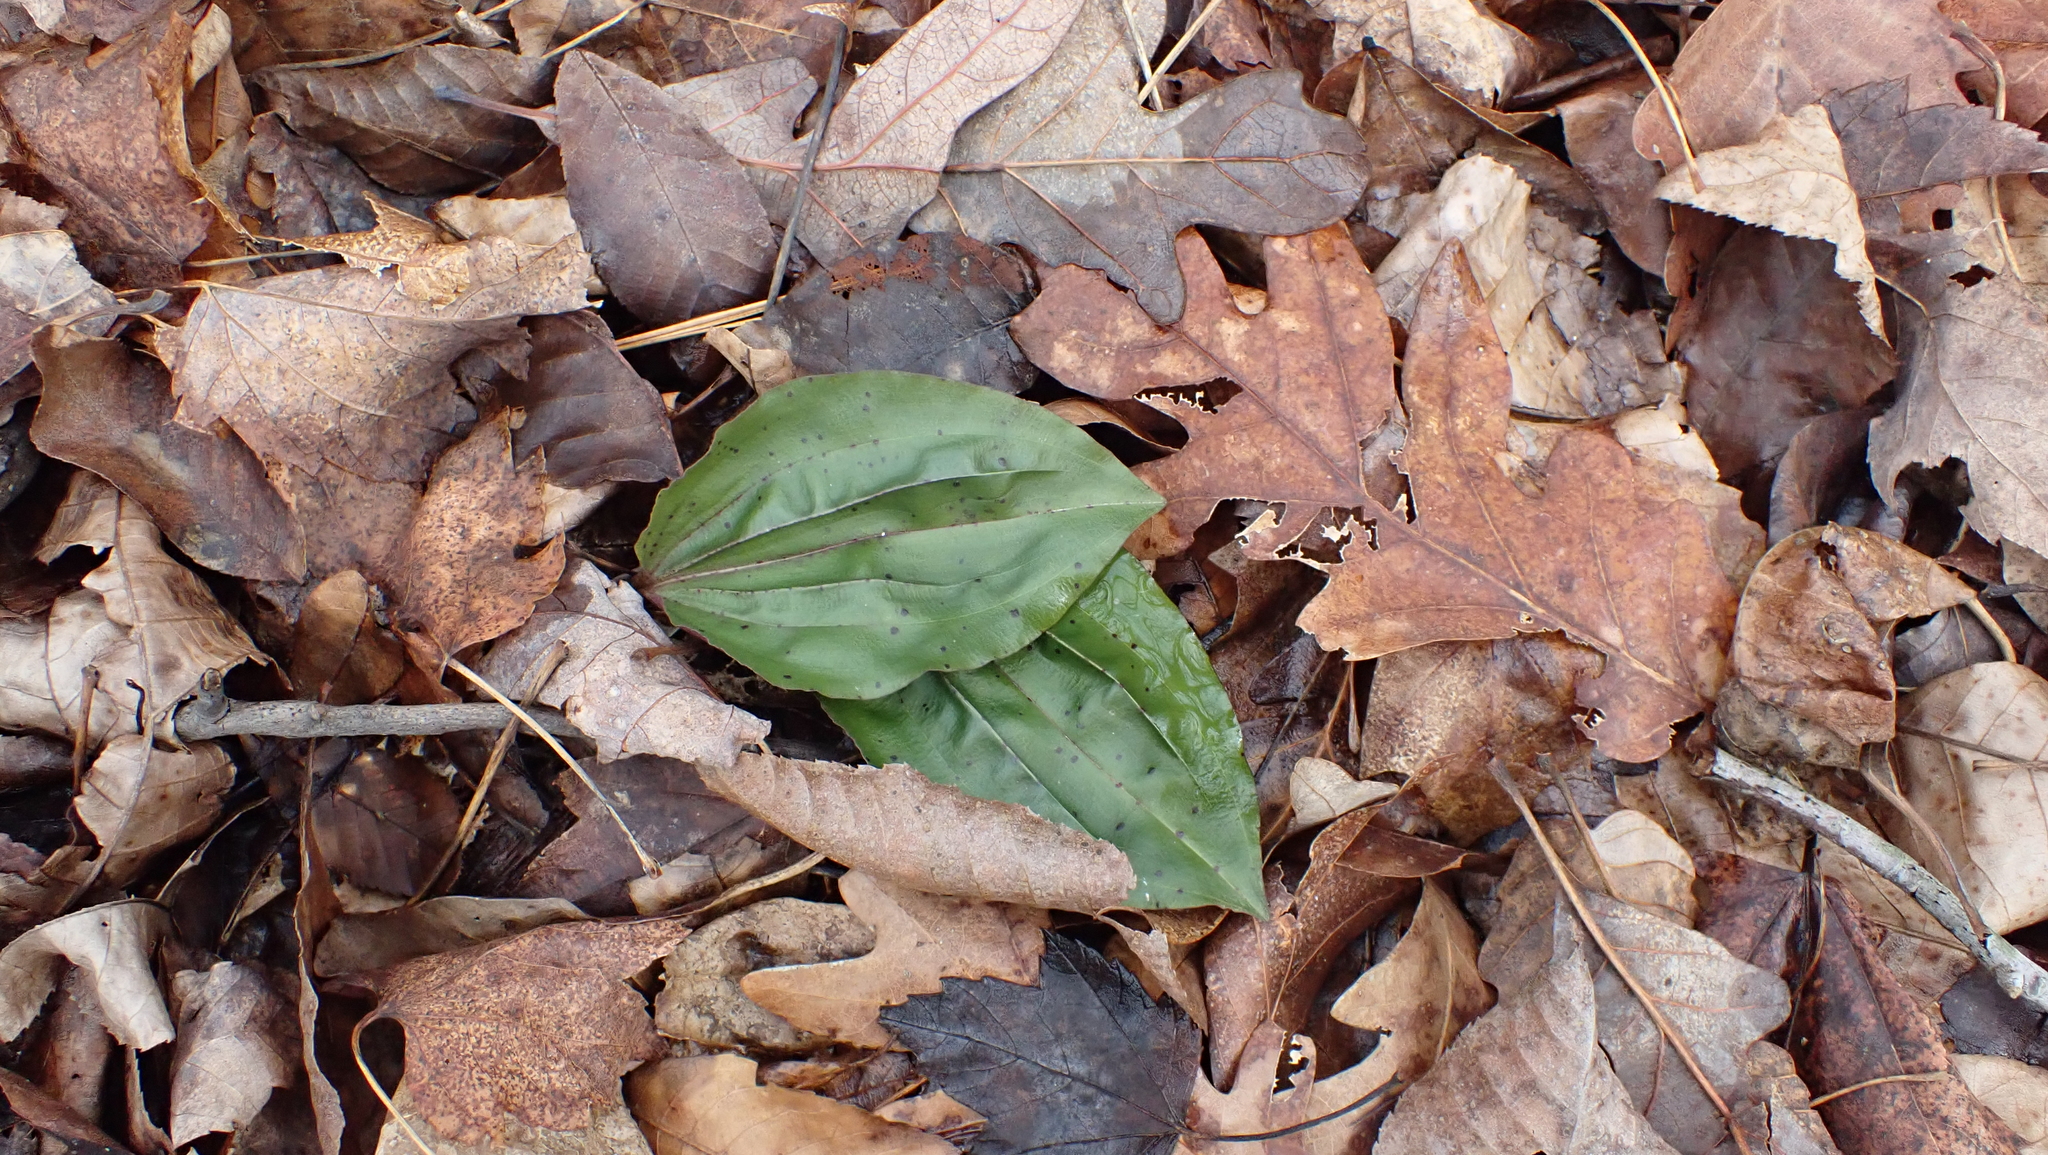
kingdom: Plantae
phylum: Tracheophyta
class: Liliopsida
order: Asparagales
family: Orchidaceae
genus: Tipularia
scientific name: Tipularia discolor
